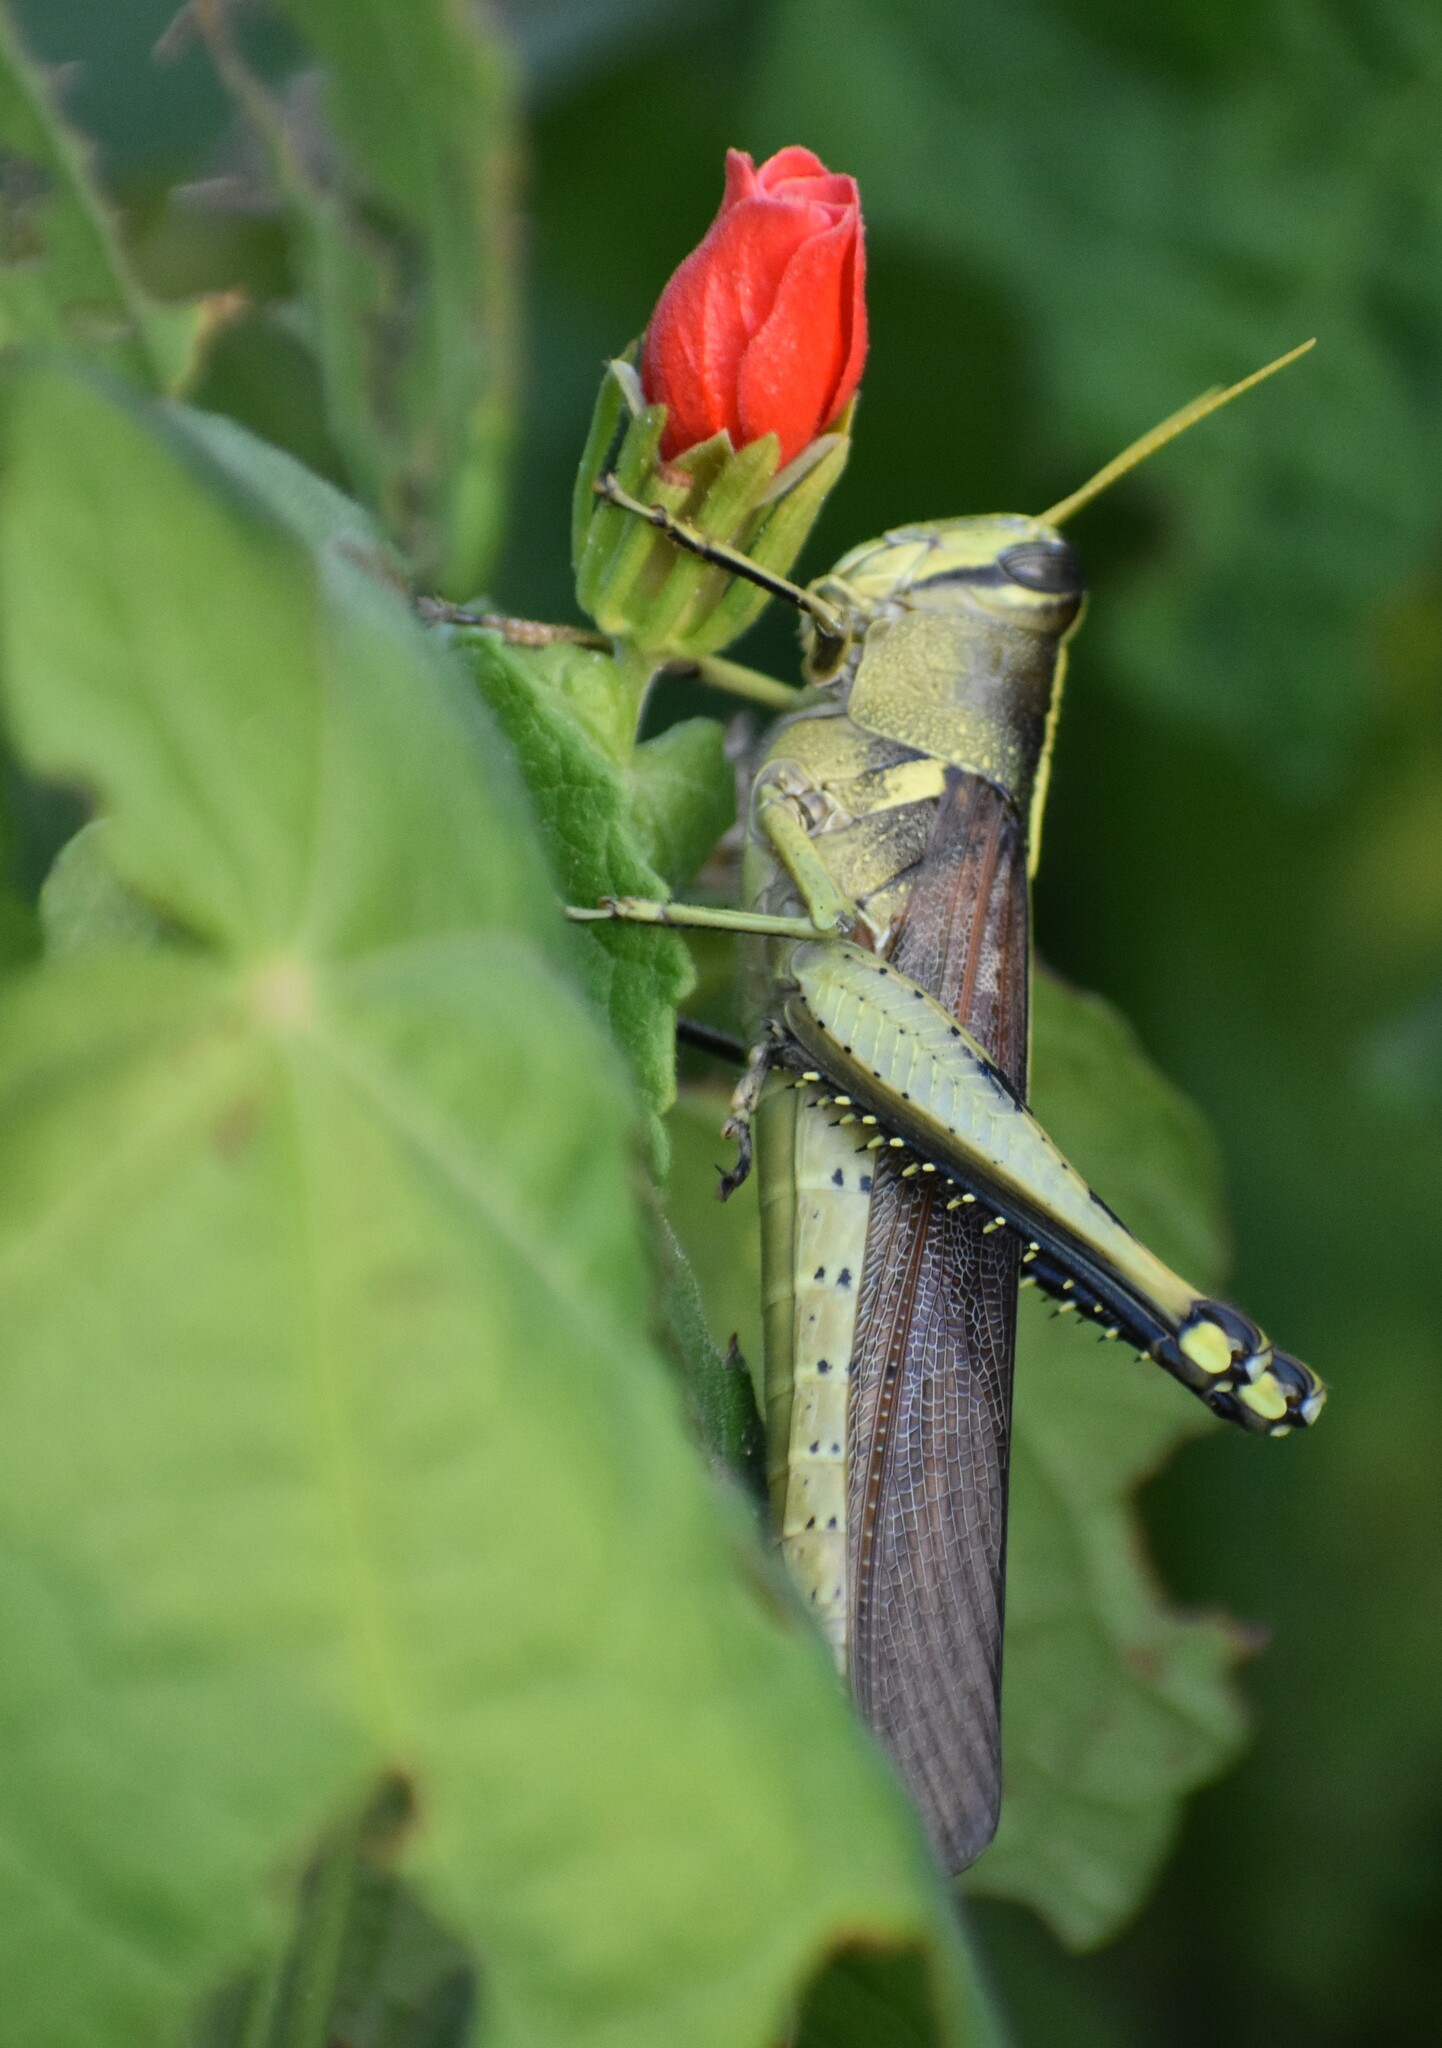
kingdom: Animalia
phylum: Arthropoda
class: Insecta
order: Orthoptera
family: Acrididae
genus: Schistocerca
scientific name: Schistocerca obscura
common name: Obscure bird grasshopper
